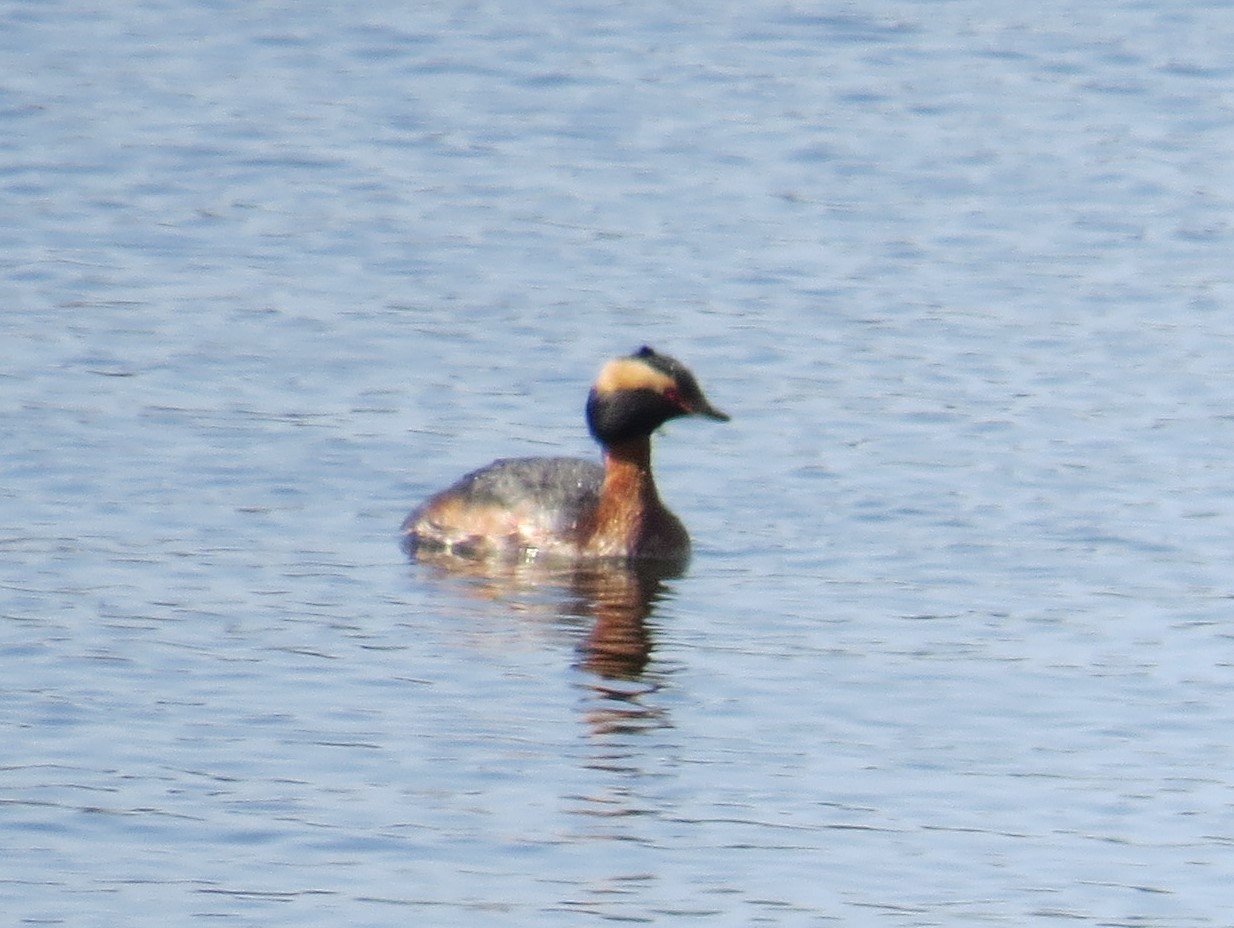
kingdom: Animalia
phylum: Chordata
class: Aves
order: Podicipediformes
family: Podicipedidae
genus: Podiceps
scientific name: Podiceps auritus
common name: Horned grebe
